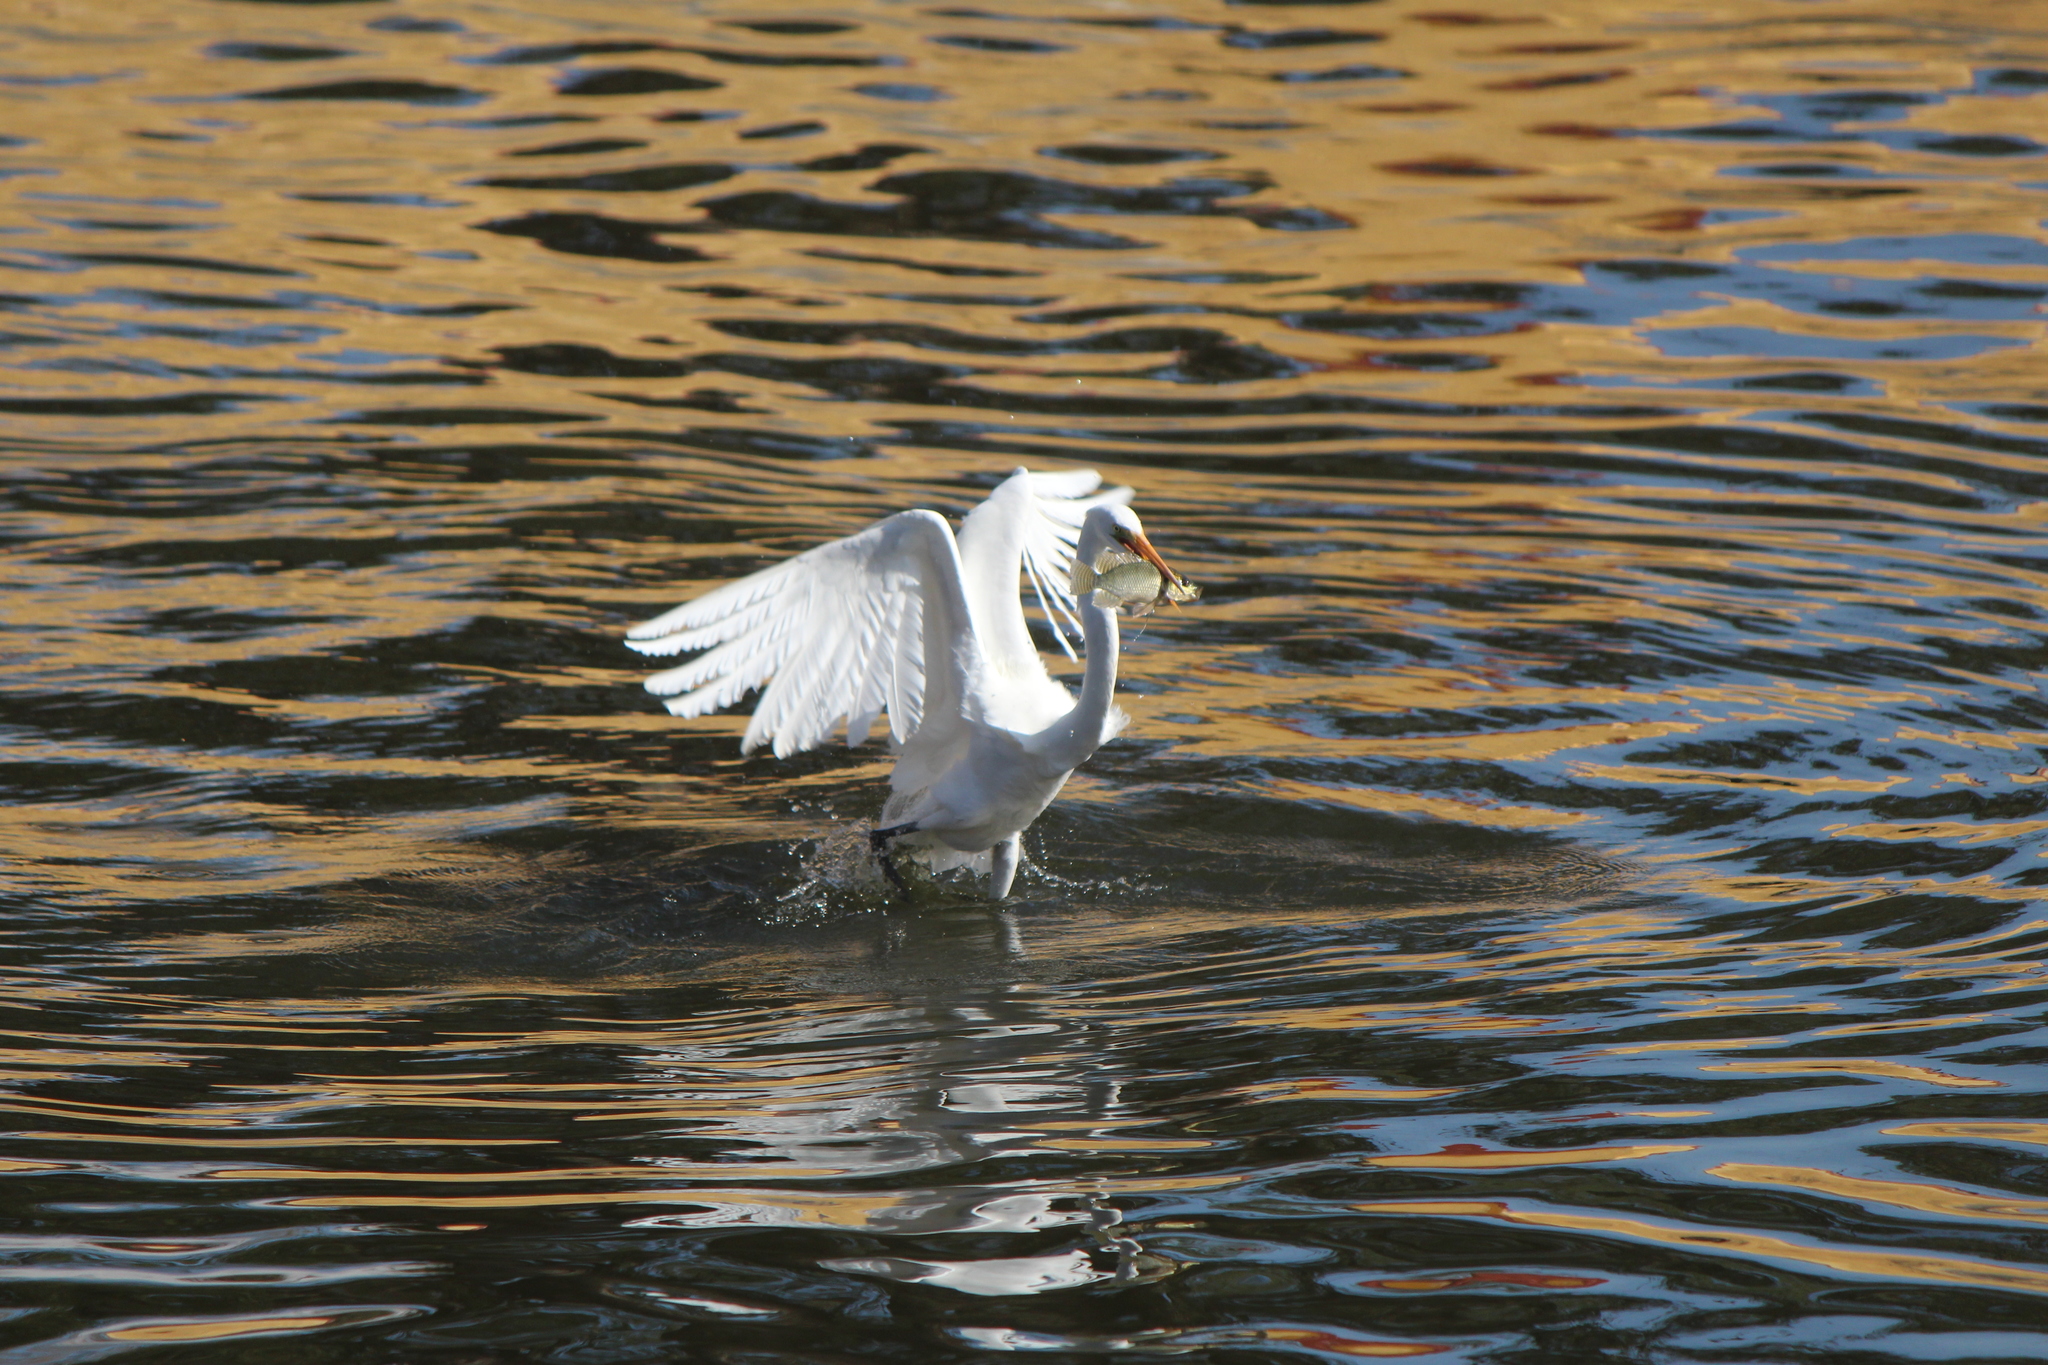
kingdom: Animalia
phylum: Chordata
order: Perciformes
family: Cichlidae
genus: Oreochromis
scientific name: Oreochromis niloticus
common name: Nile tilapia
